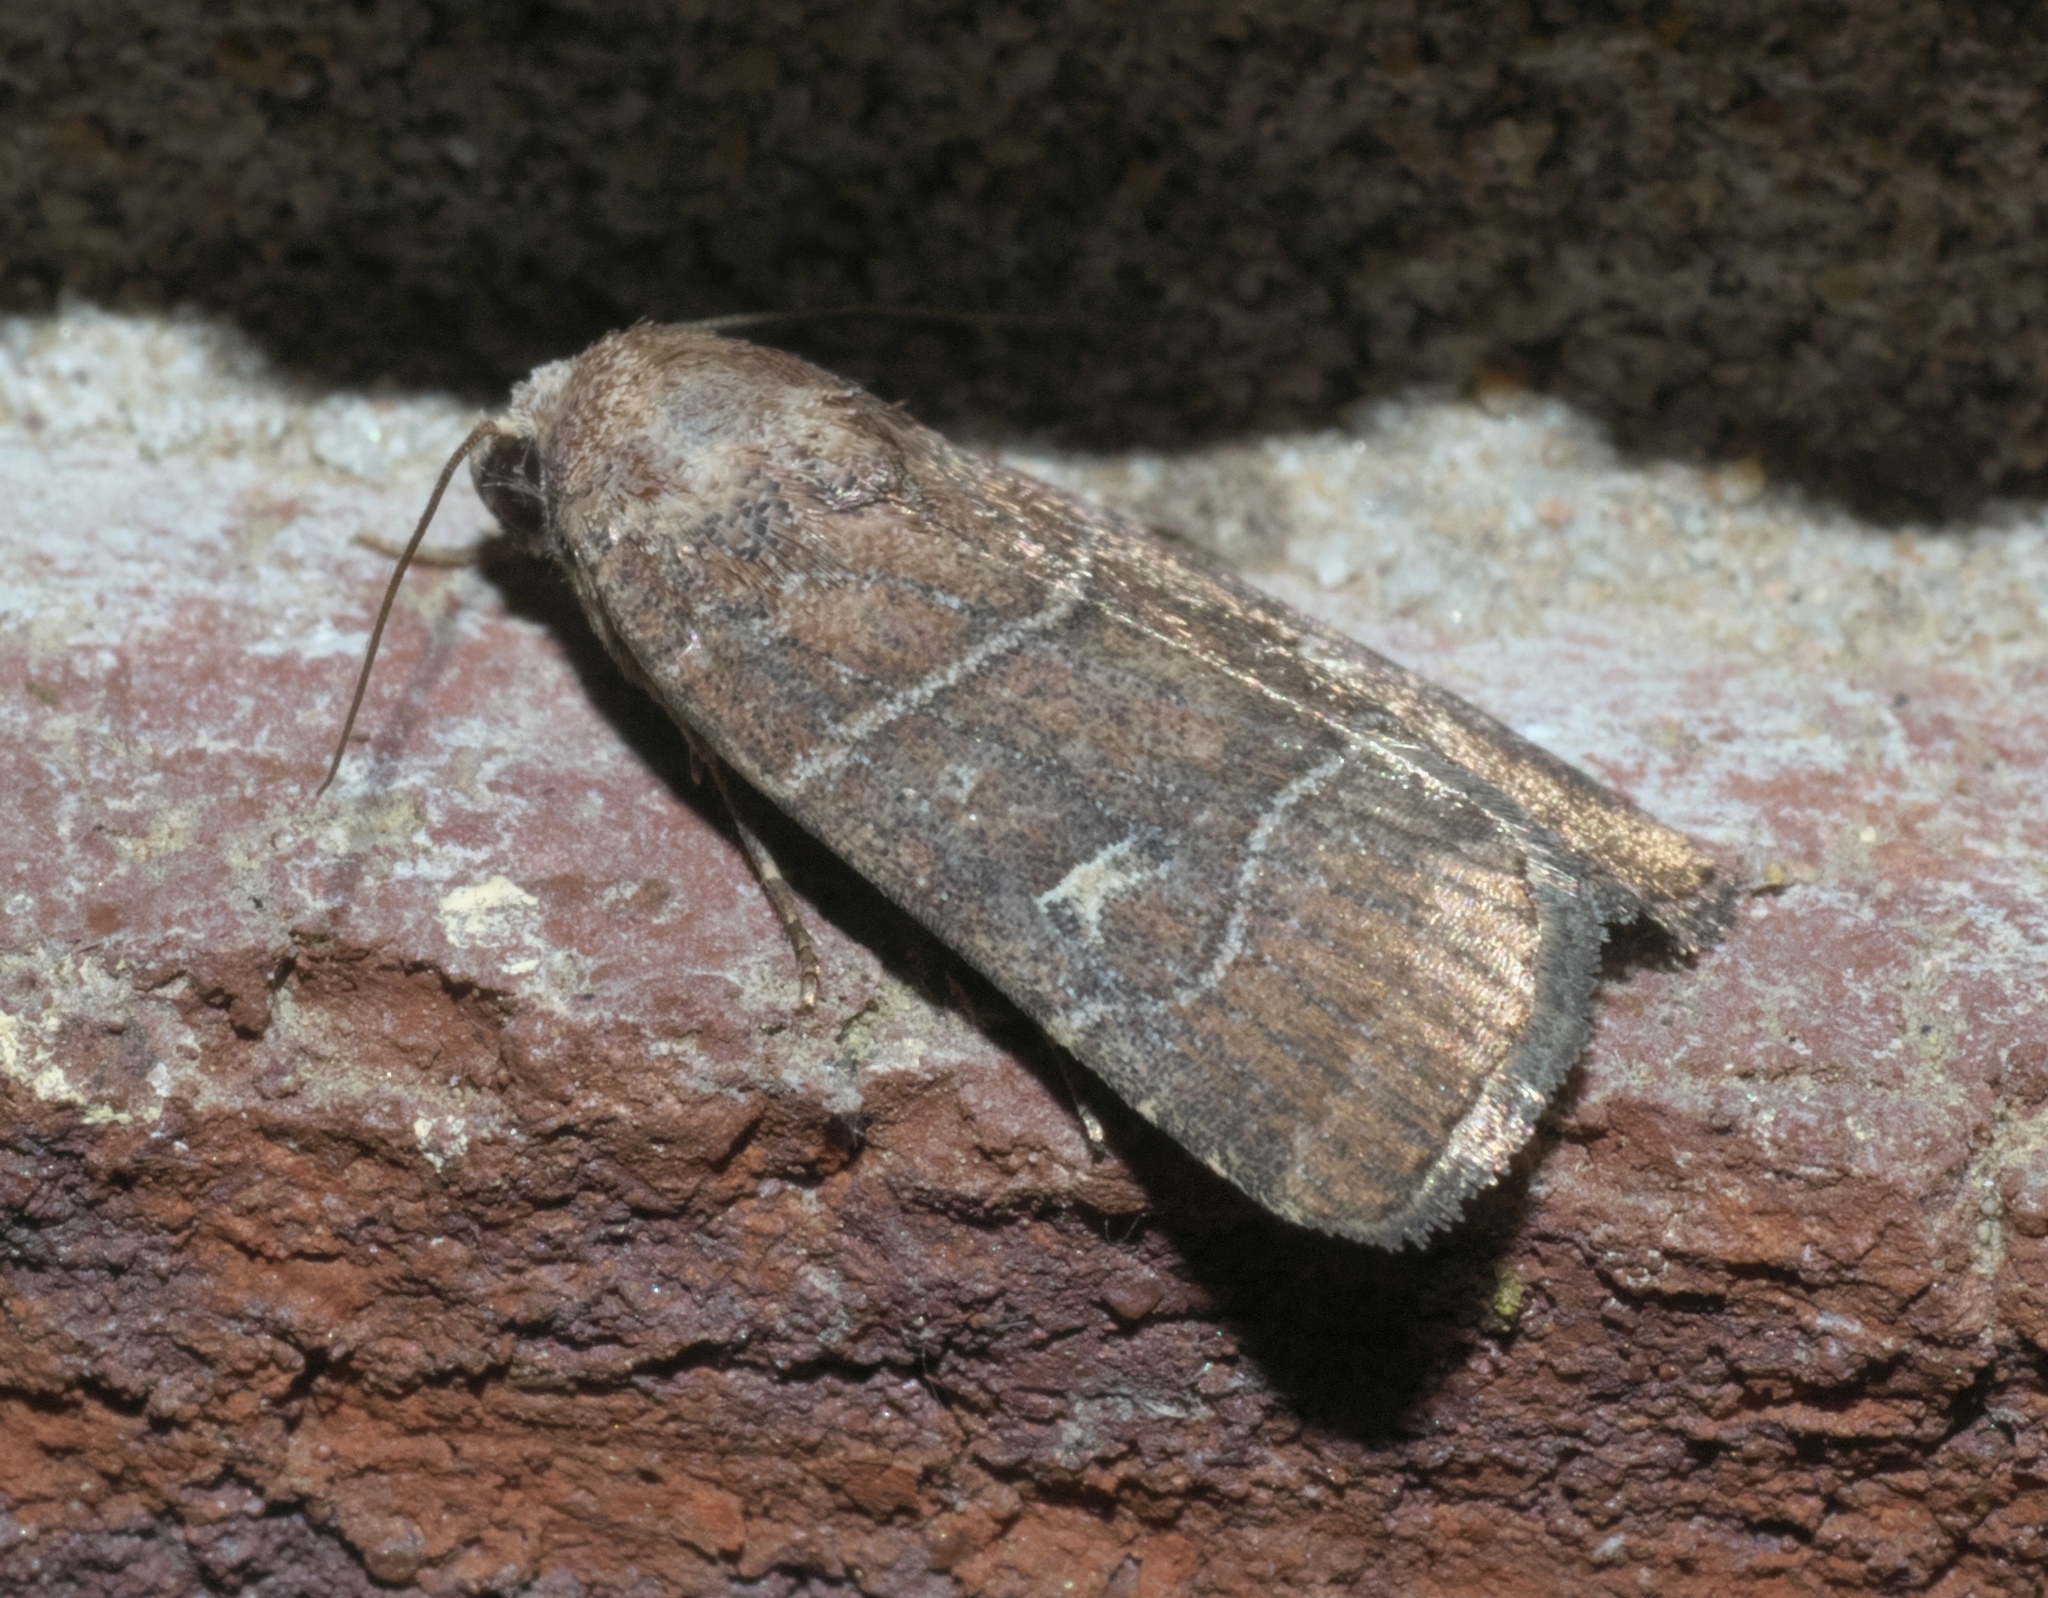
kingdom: Animalia
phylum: Arthropoda
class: Insecta
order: Lepidoptera
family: Noctuidae
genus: Elaphria
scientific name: Elaphria grata
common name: Grateful midget moth
